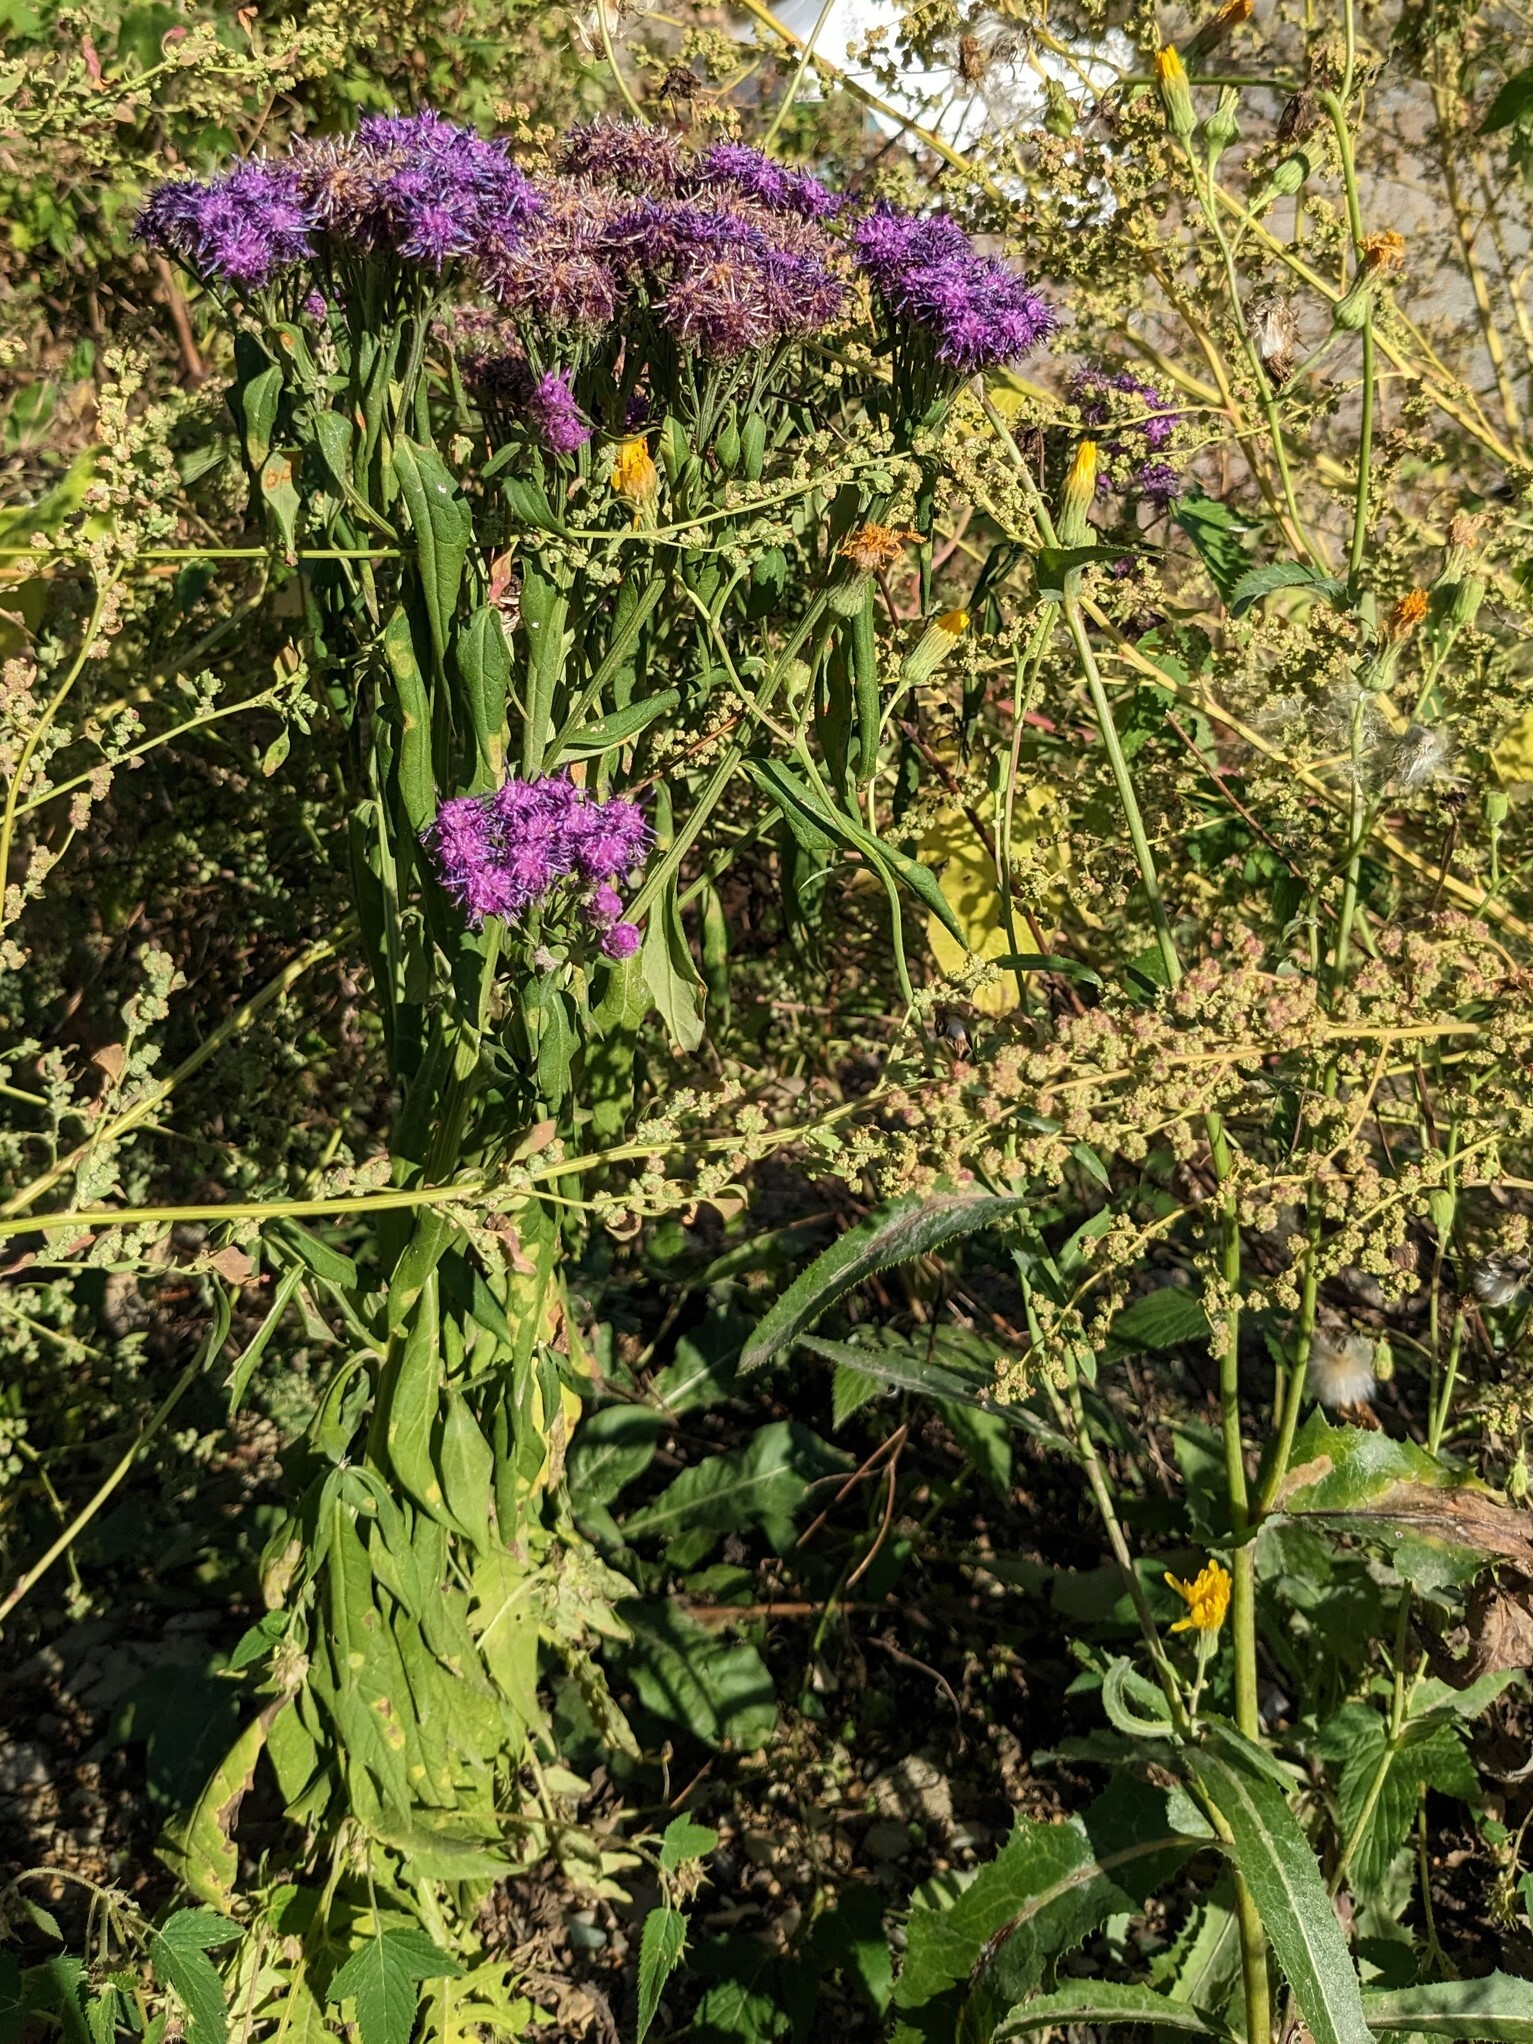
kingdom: Plantae
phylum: Tracheophyta
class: Magnoliopsida
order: Asterales
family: Asteraceae
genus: Saussurea
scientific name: Saussurea pulchella
